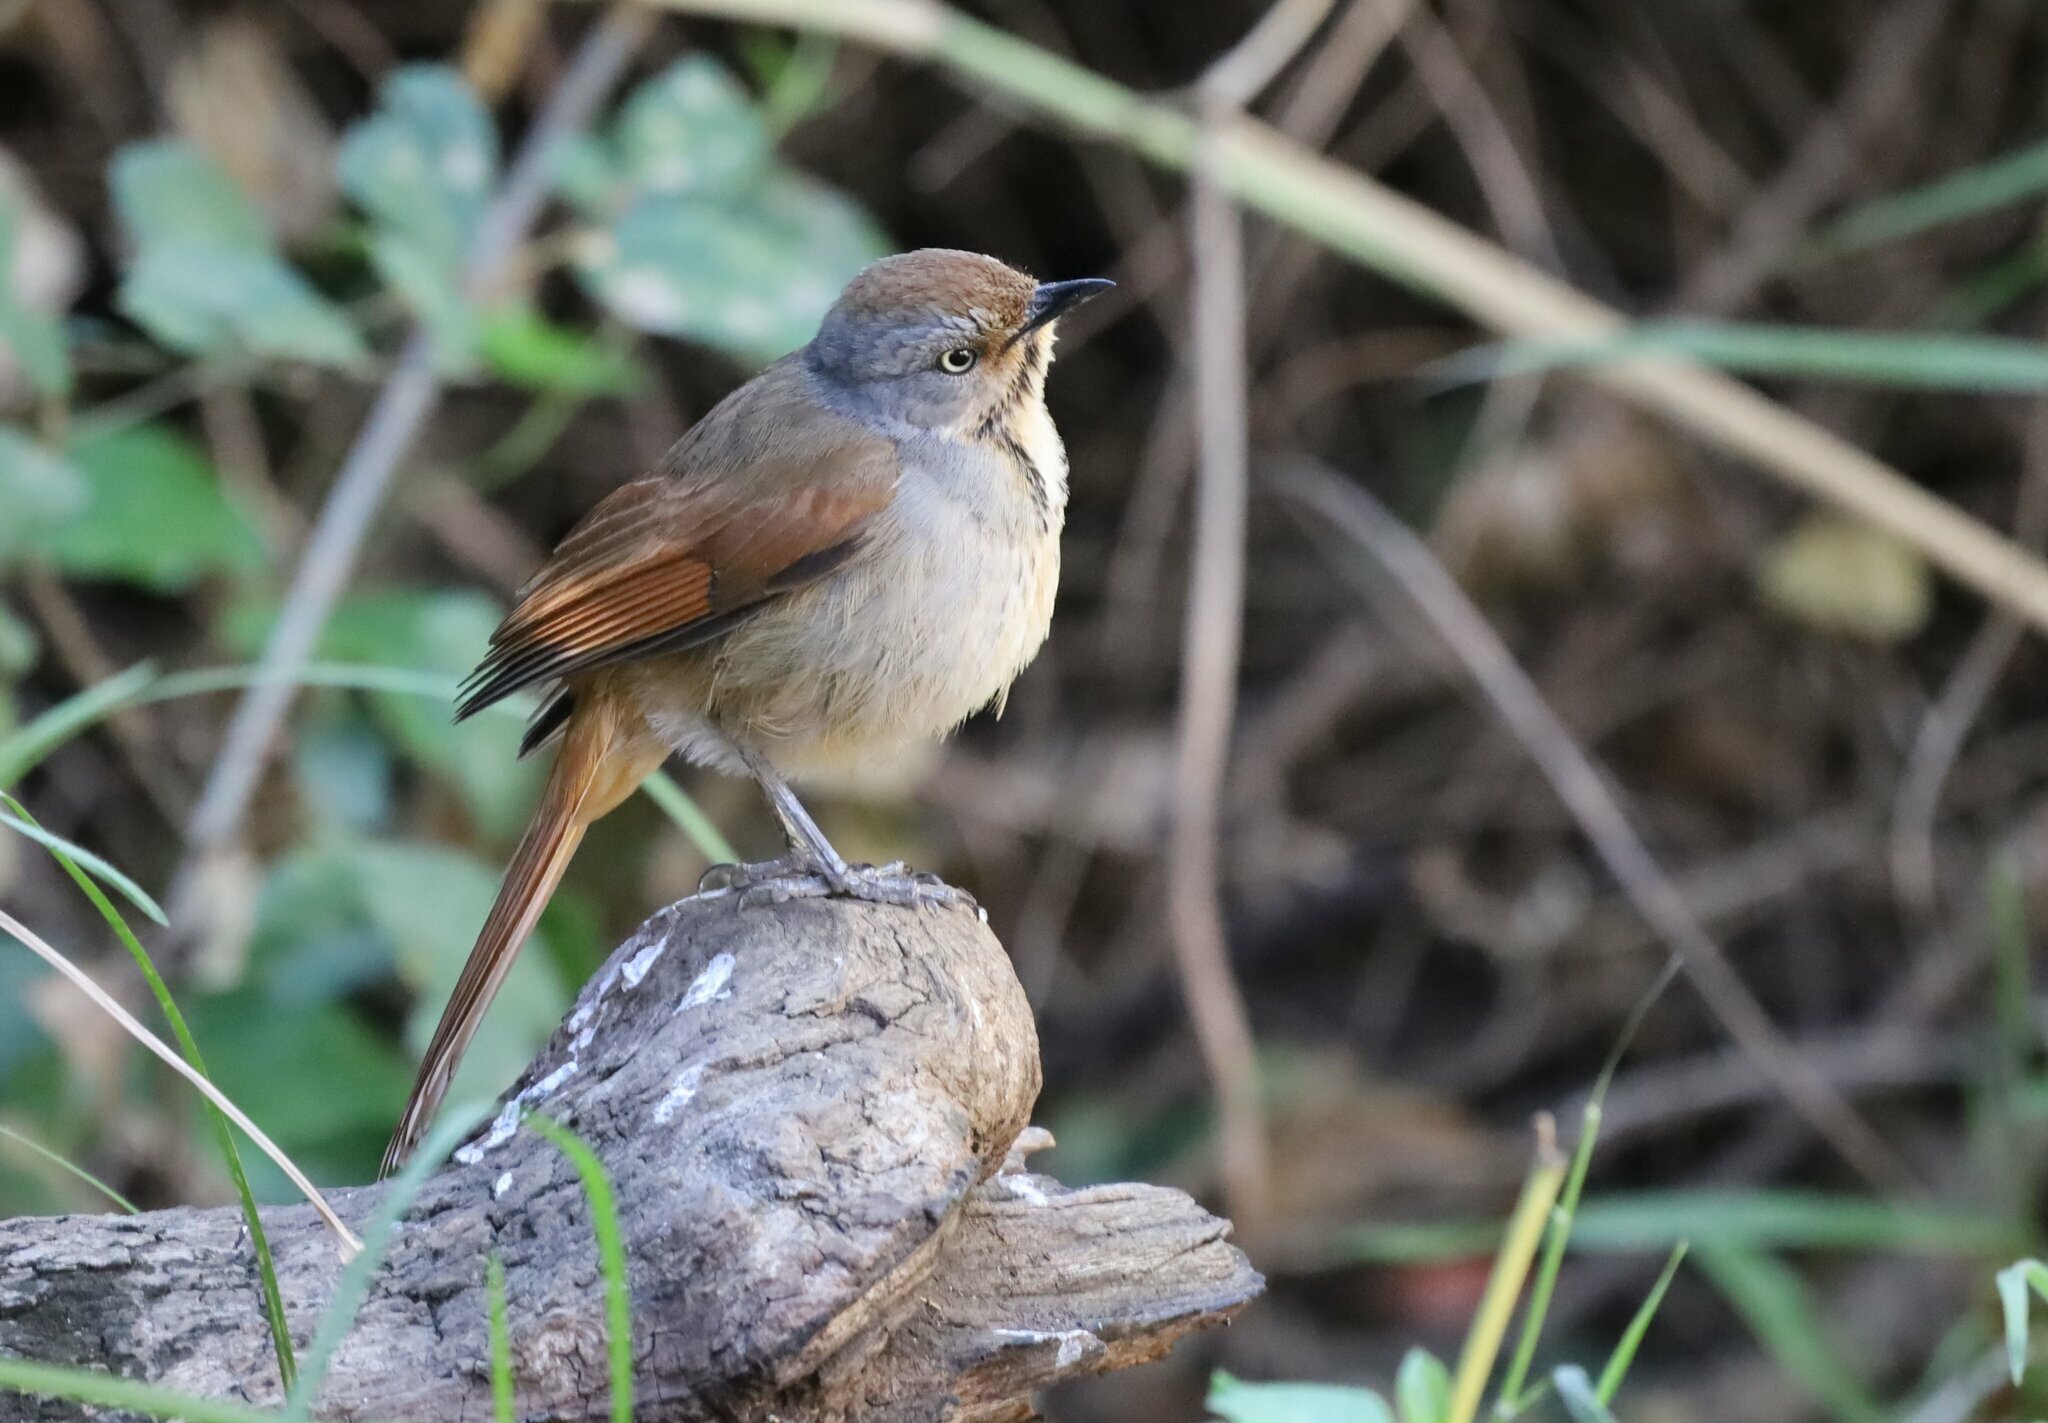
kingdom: Animalia
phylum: Chordata
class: Aves
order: Passeriformes
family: Muscicapidae
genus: Cichladusa
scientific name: Cichladusa arquata
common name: Collared palm thrush
